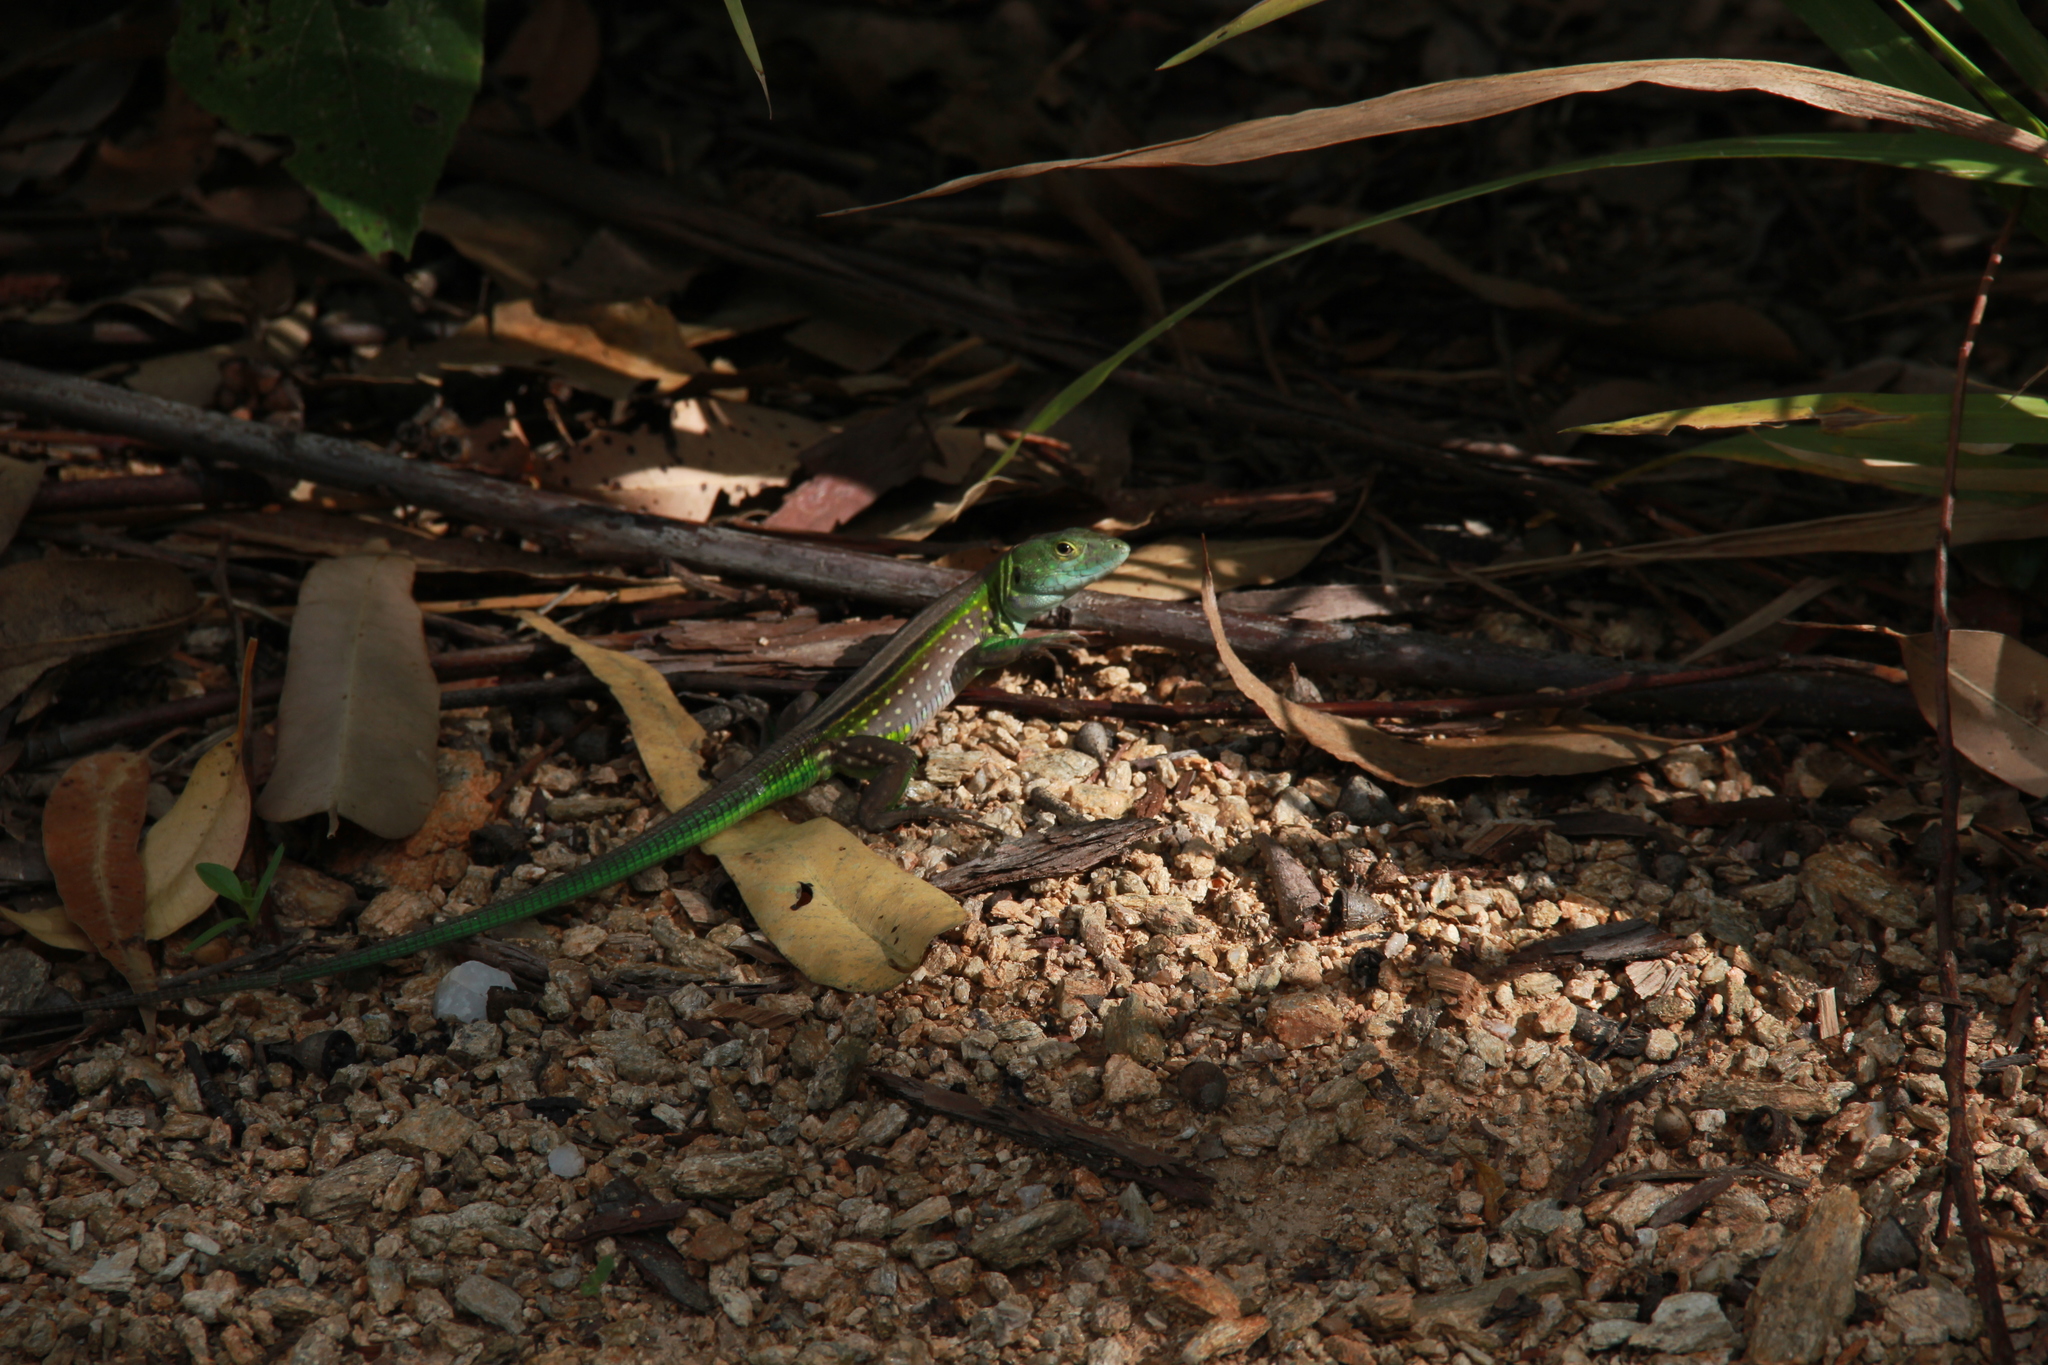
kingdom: Animalia
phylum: Chordata
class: Squamata
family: Teiidae
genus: Cnemidophorus
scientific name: Cnemidophorus lemniscatus
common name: Rainbow whiptail
